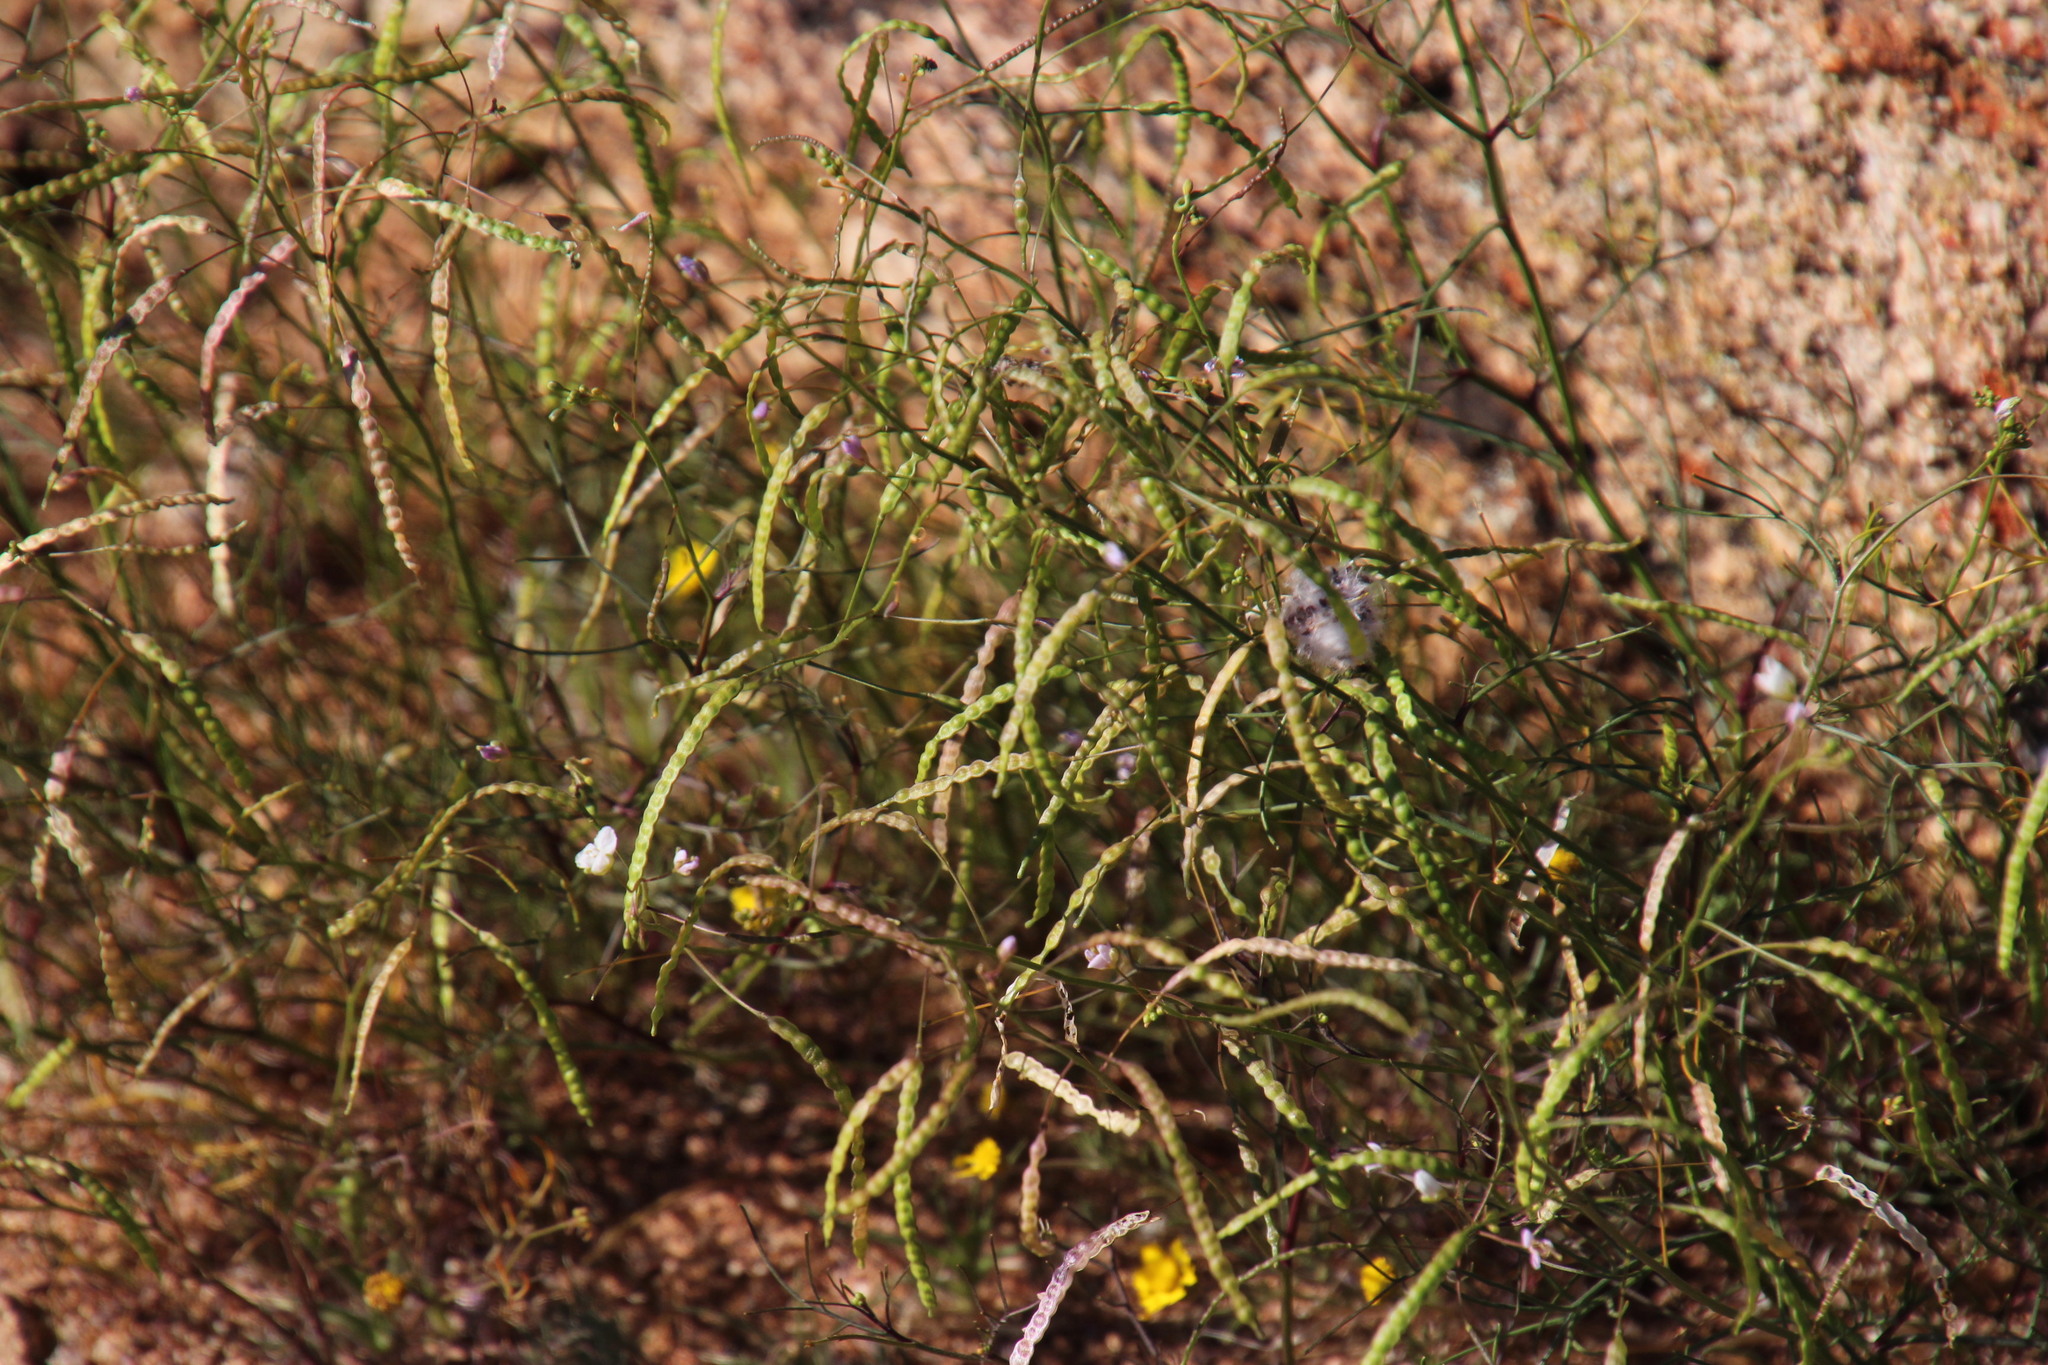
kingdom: Plantae
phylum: Tracheophyta
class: Magnoliopsida
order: Brassicales
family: Brassicaceae
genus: Heliophila
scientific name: Heliophila variabilis
